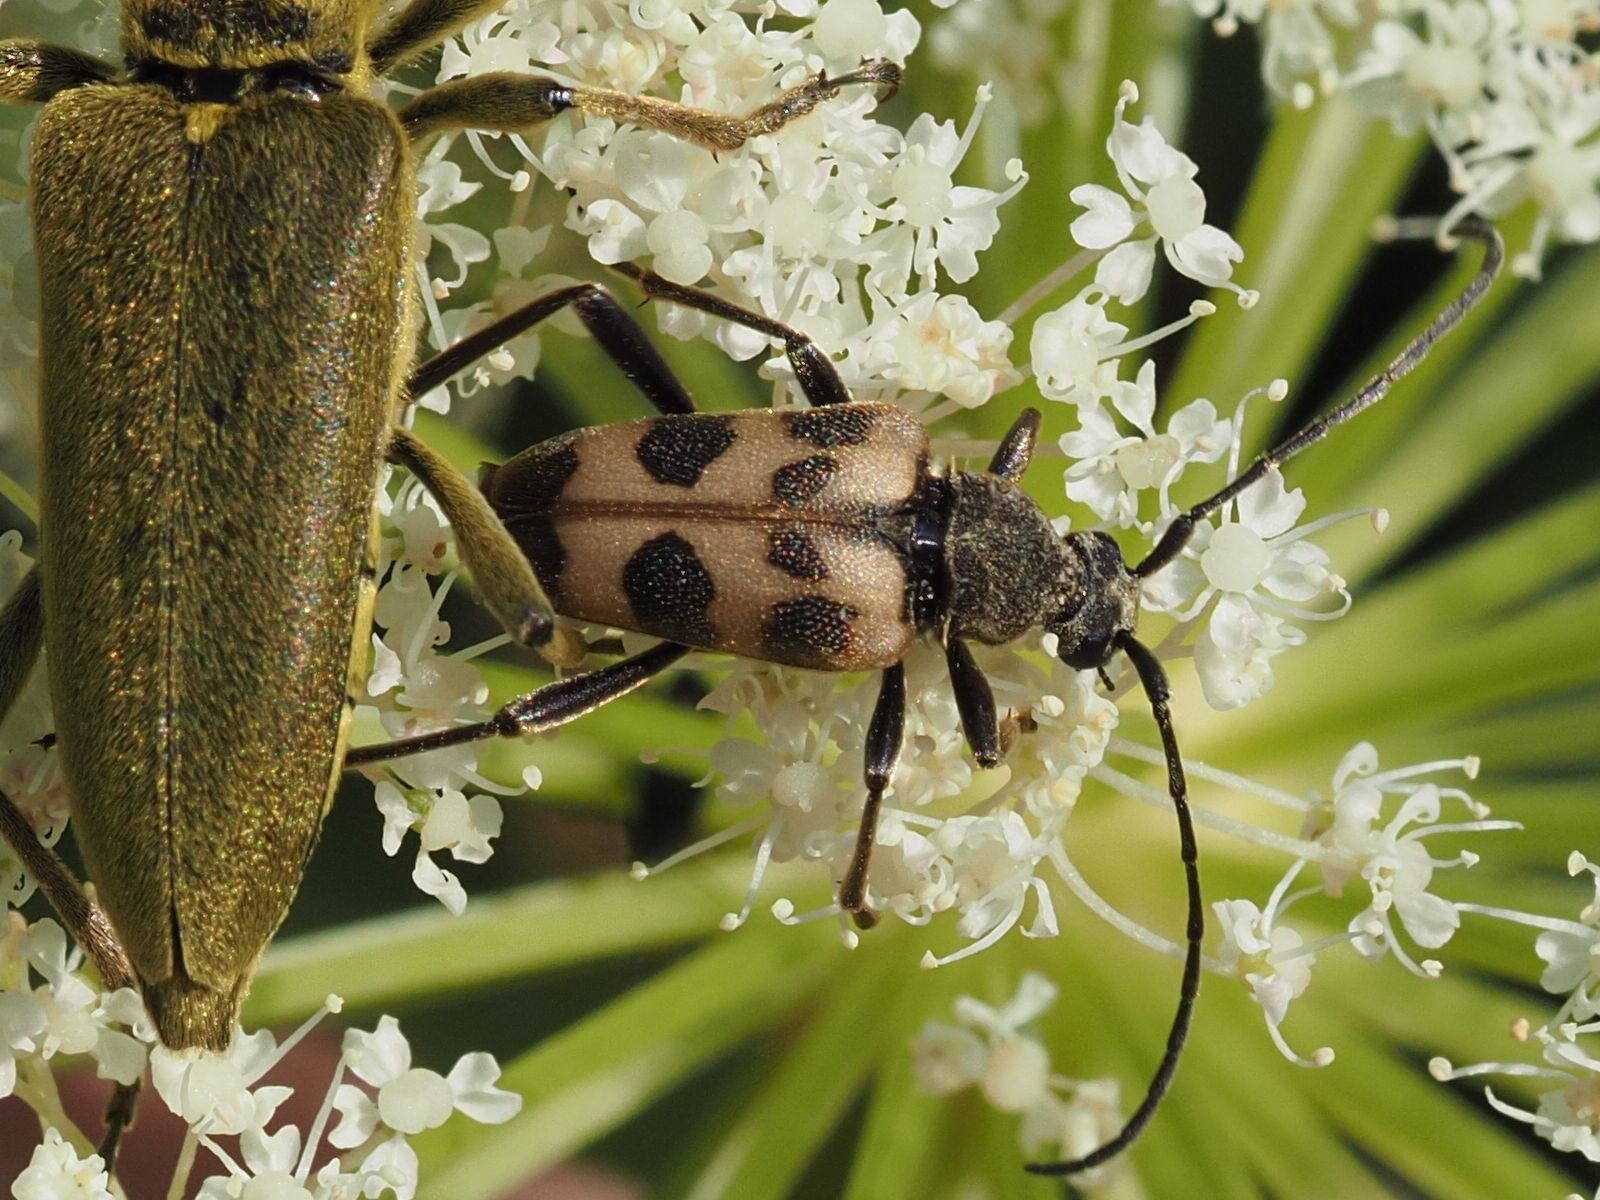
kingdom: Animalia
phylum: Arthropoda
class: Insecta
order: Coleoptera
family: Cerambycidae
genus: Pachytodes
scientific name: Pachytodes cerambyciformis
